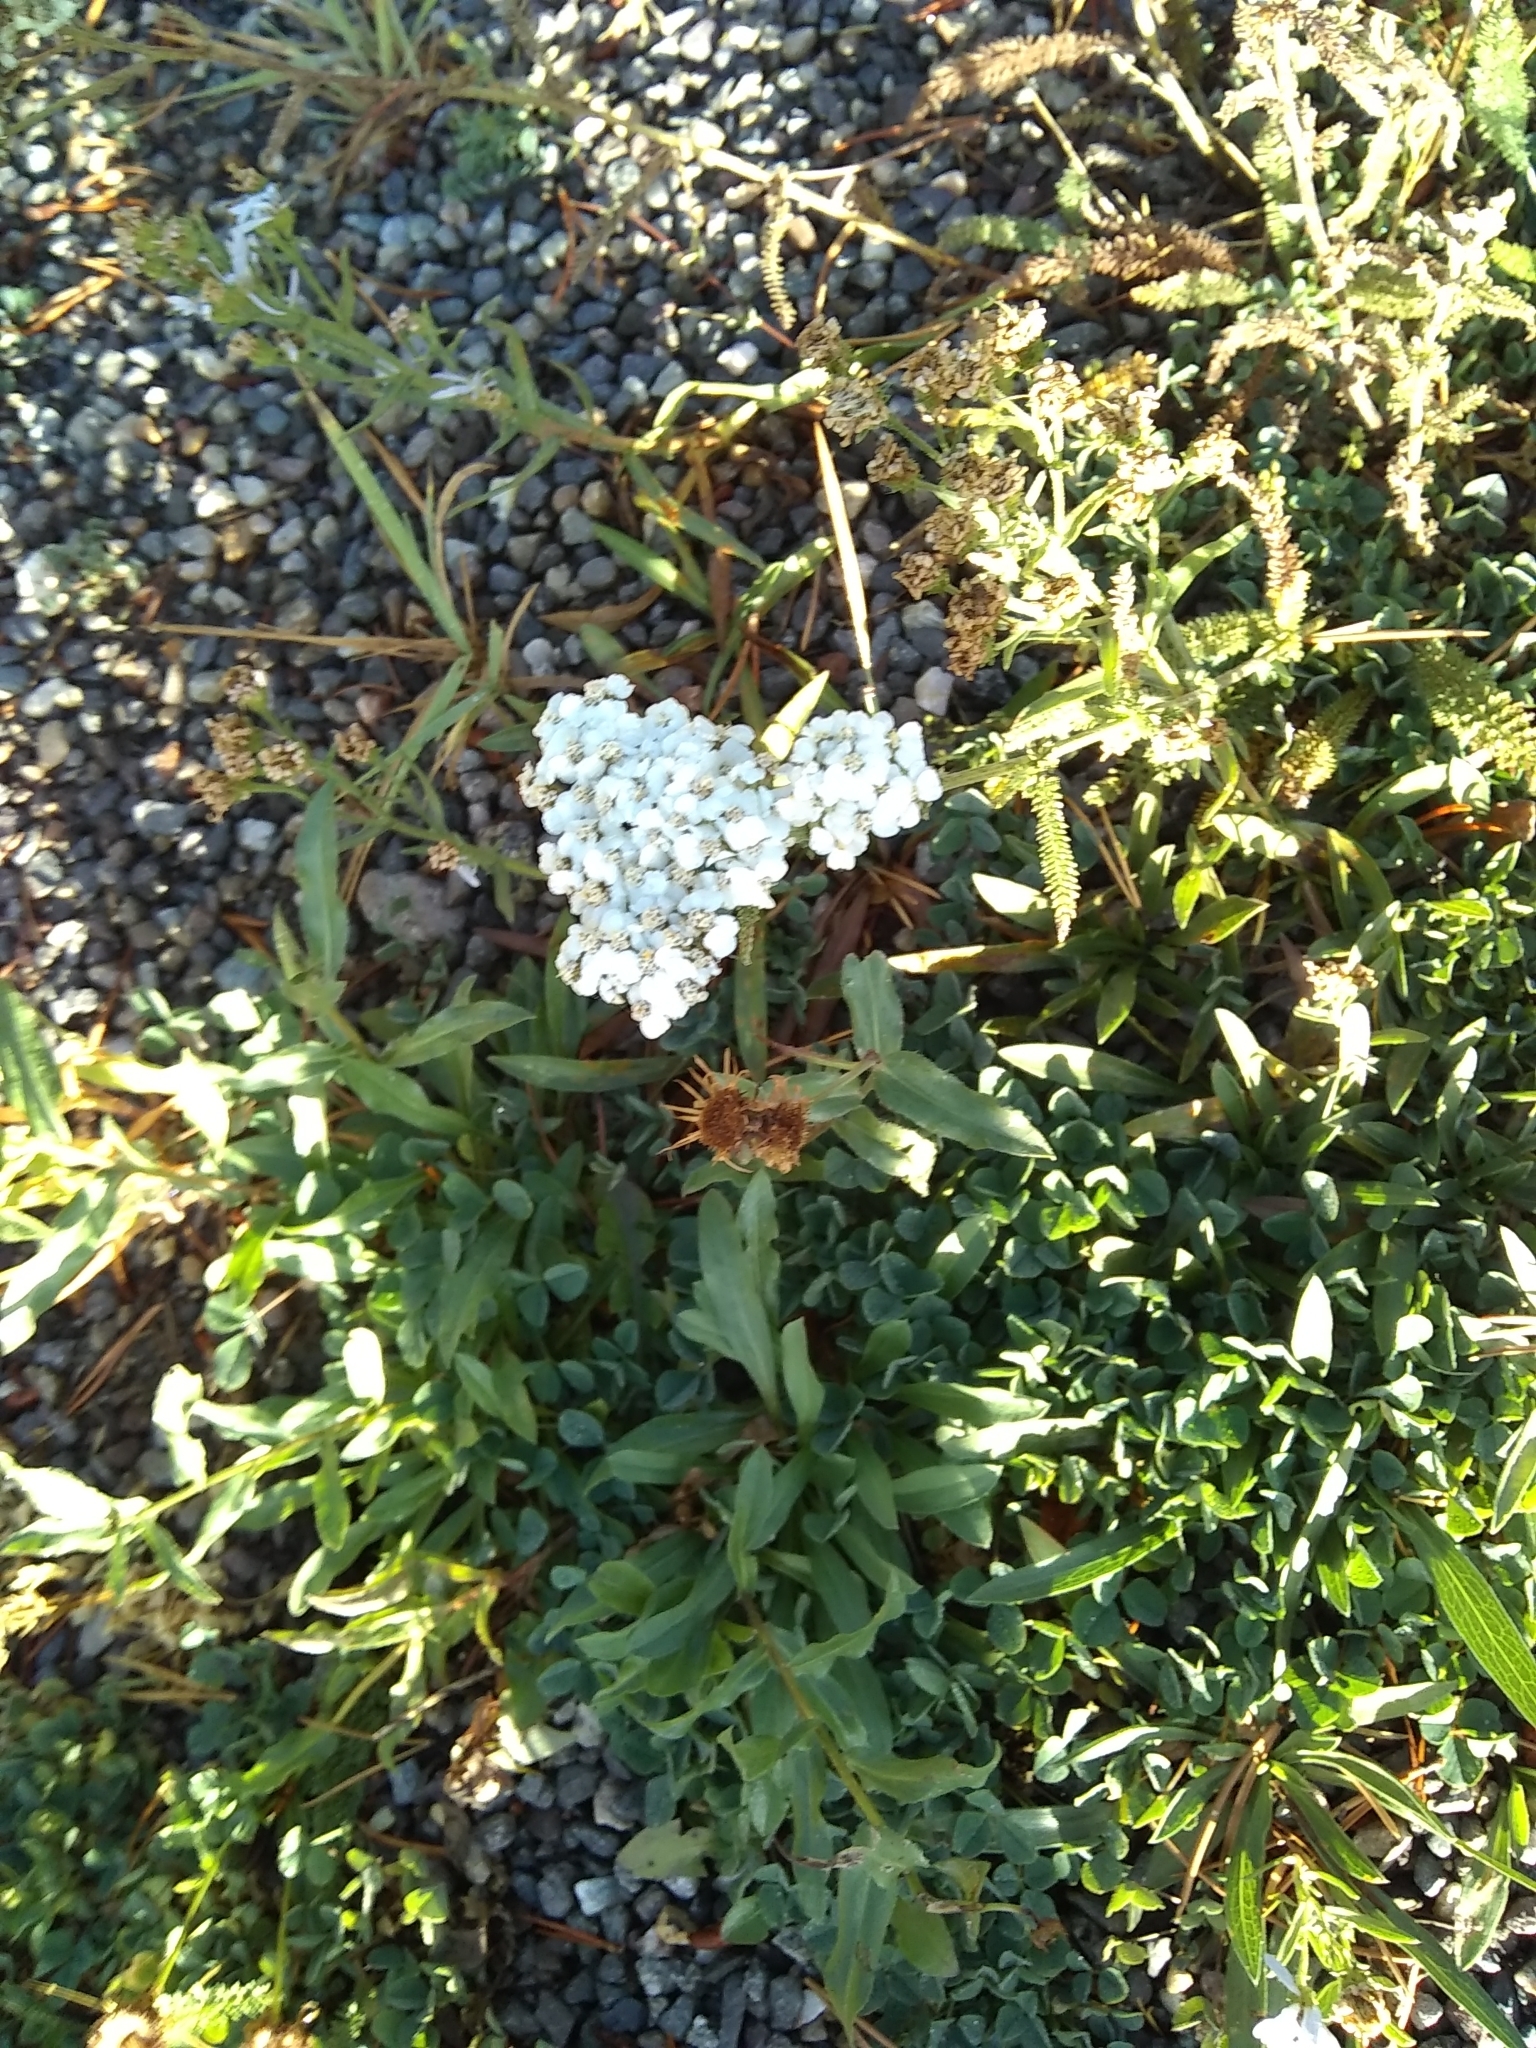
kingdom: Plantae
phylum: Tracheophyta
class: Magnoliopsida
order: Asterales
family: Asteraceae
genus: Achillea
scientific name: Achillea millefolium
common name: Yarrow
